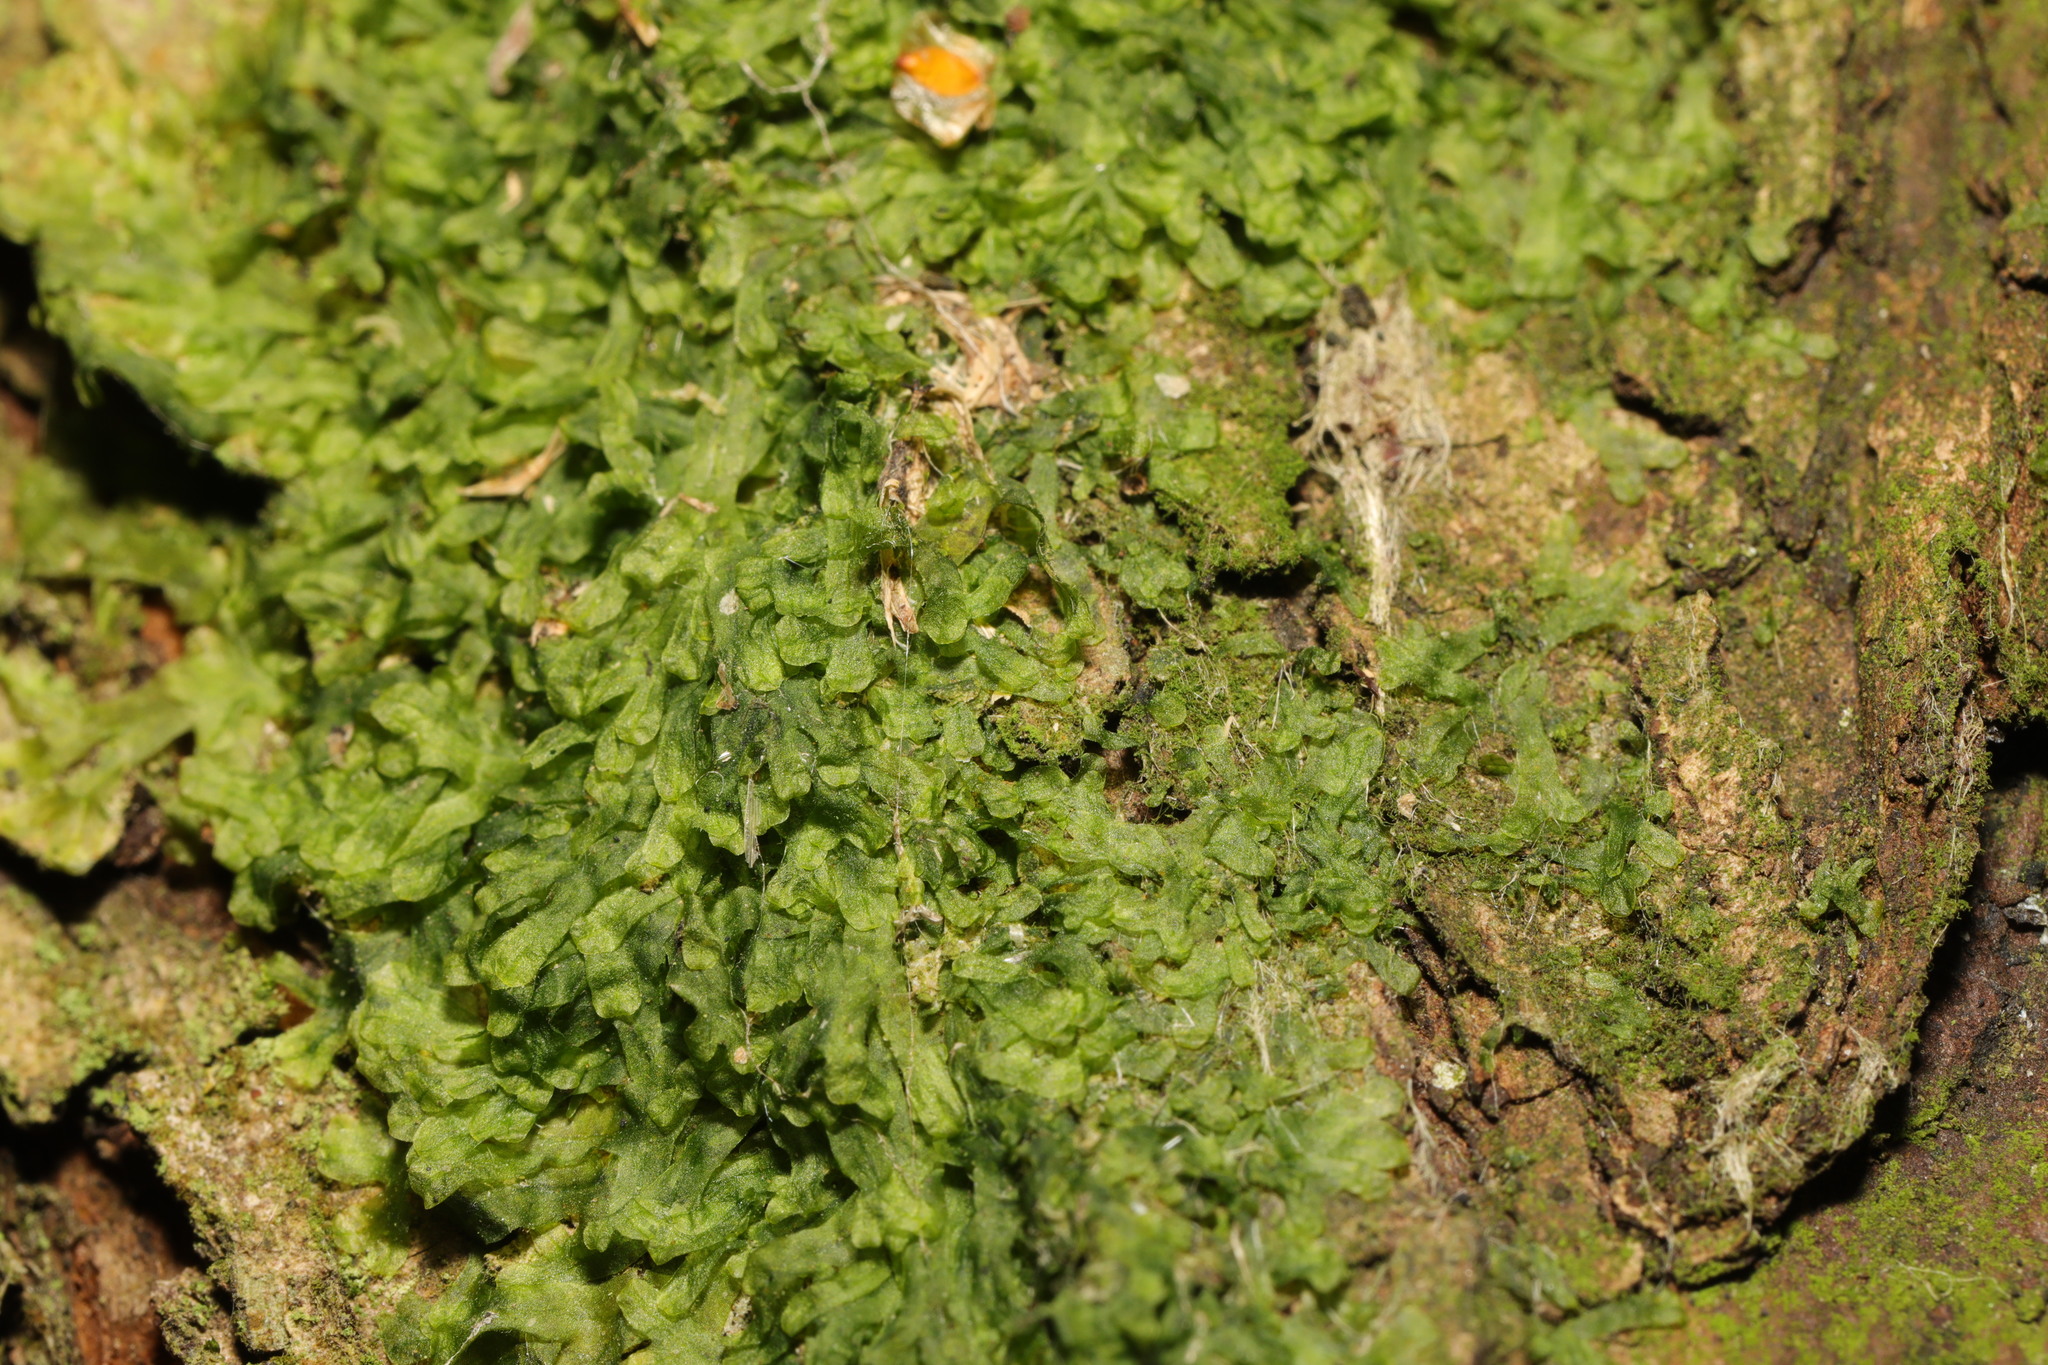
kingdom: Plantae
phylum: Marchantiophyta
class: Jungermanniopsida
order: Metzgeriales
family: Metzgeriaceae
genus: Metzgeria
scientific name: Metzgeria furcata
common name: Forked veilwort
